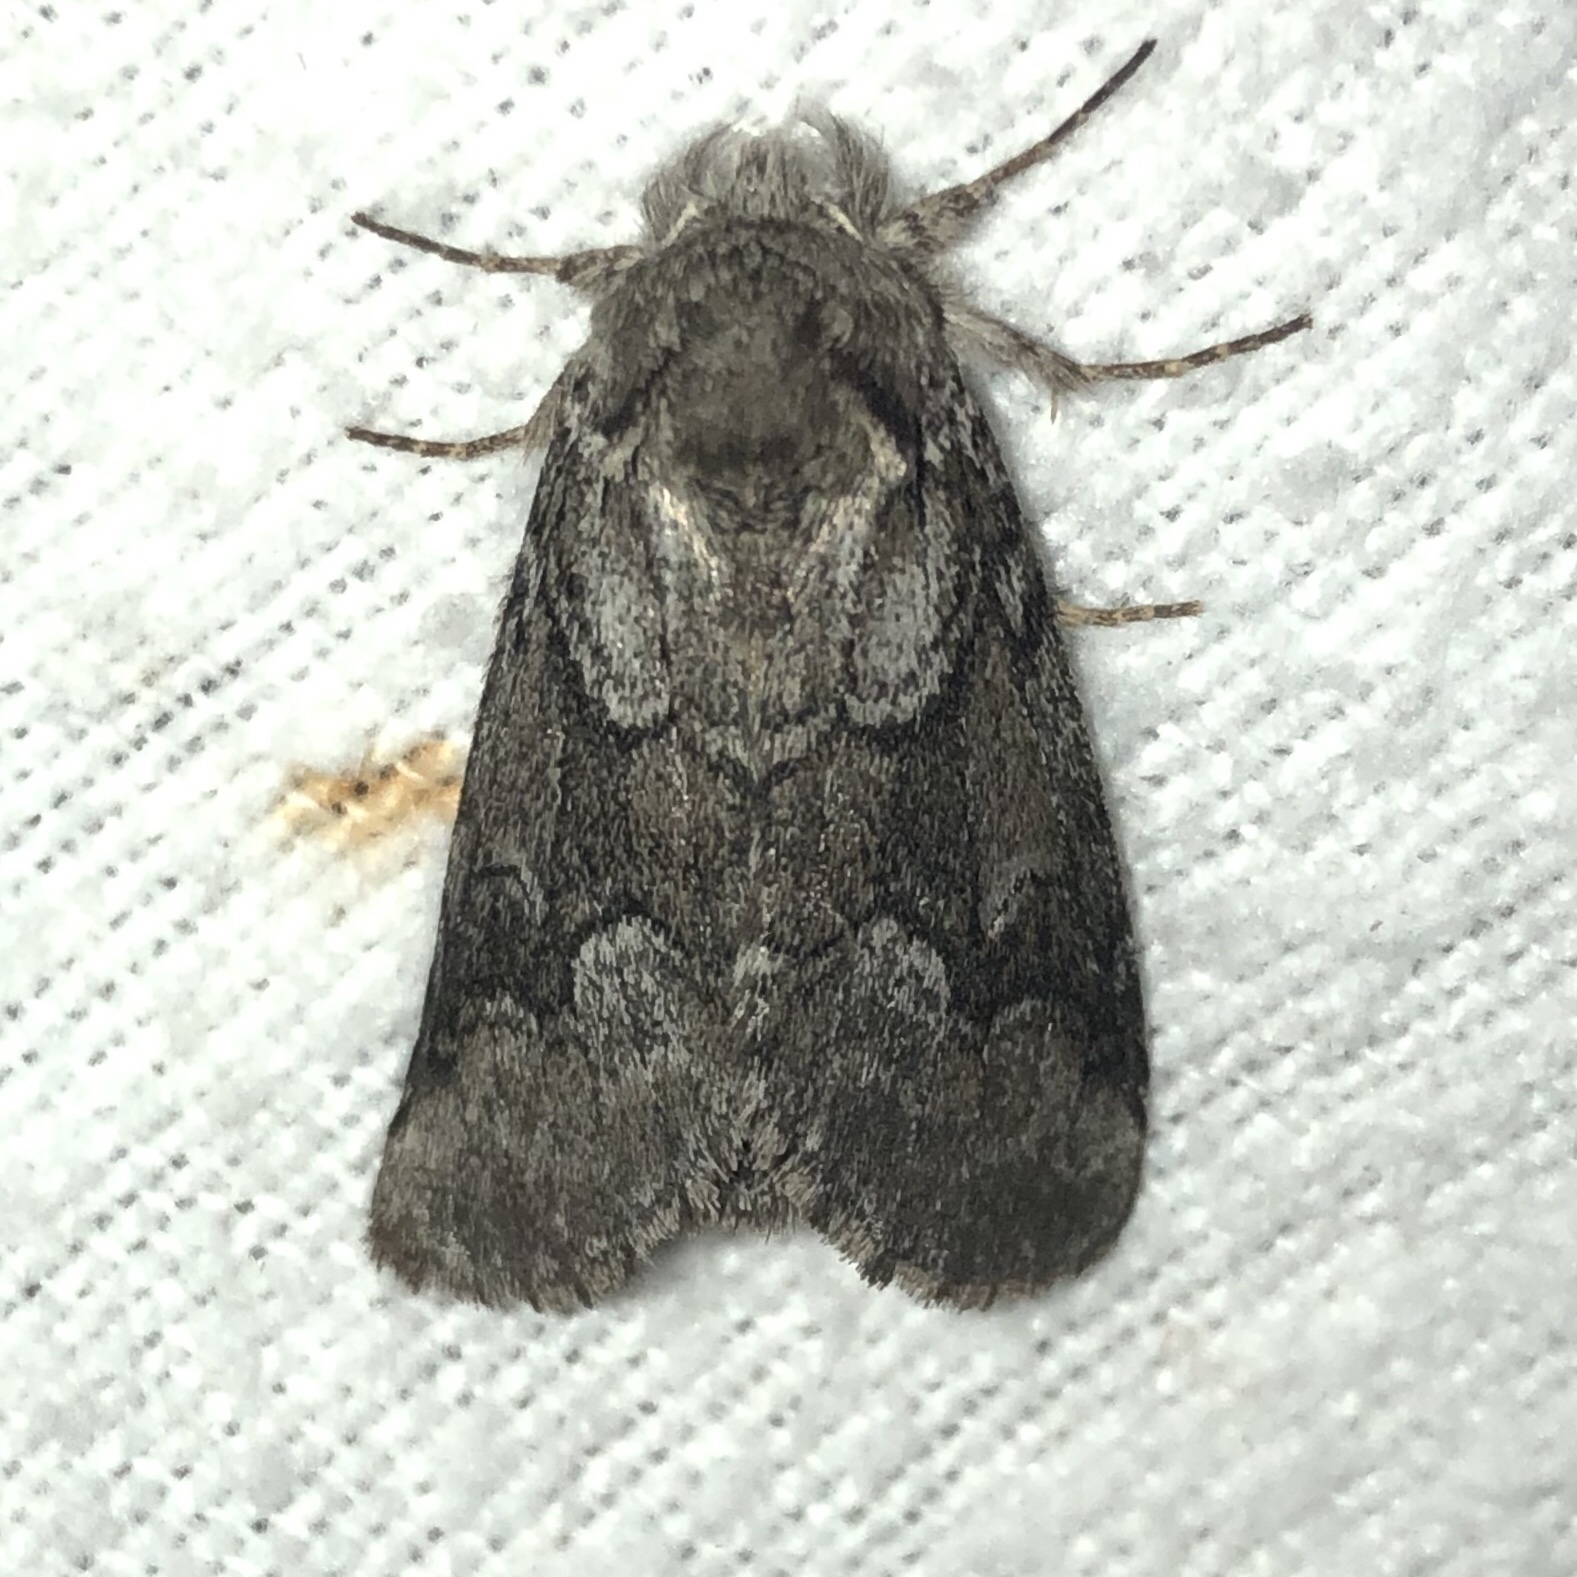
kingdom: Animalia
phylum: Arthropoda
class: Insecta
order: Lepidoptera
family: Notodontidae
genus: Lochmaeus
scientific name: Lochmaeus bilineata
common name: Double-lined prominent
